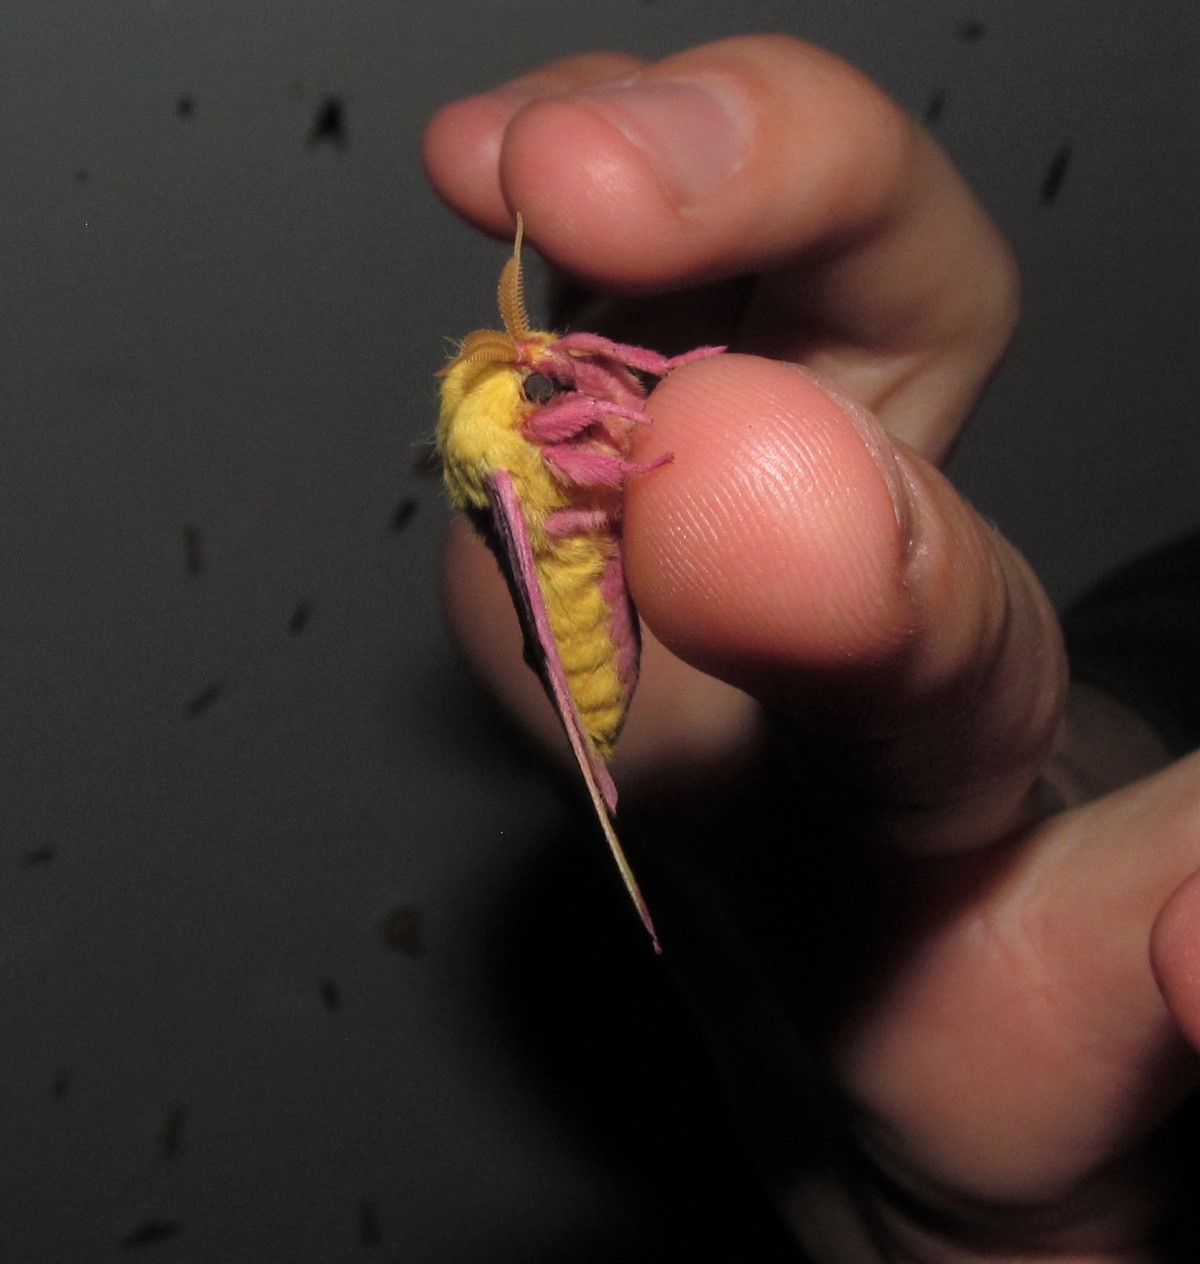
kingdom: Animalia
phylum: Arthropoda
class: Insecta
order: Lepidoptera
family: Saturniidae
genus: Dryocampa
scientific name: Dryocampa rubicunda
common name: Rosy maple moth
